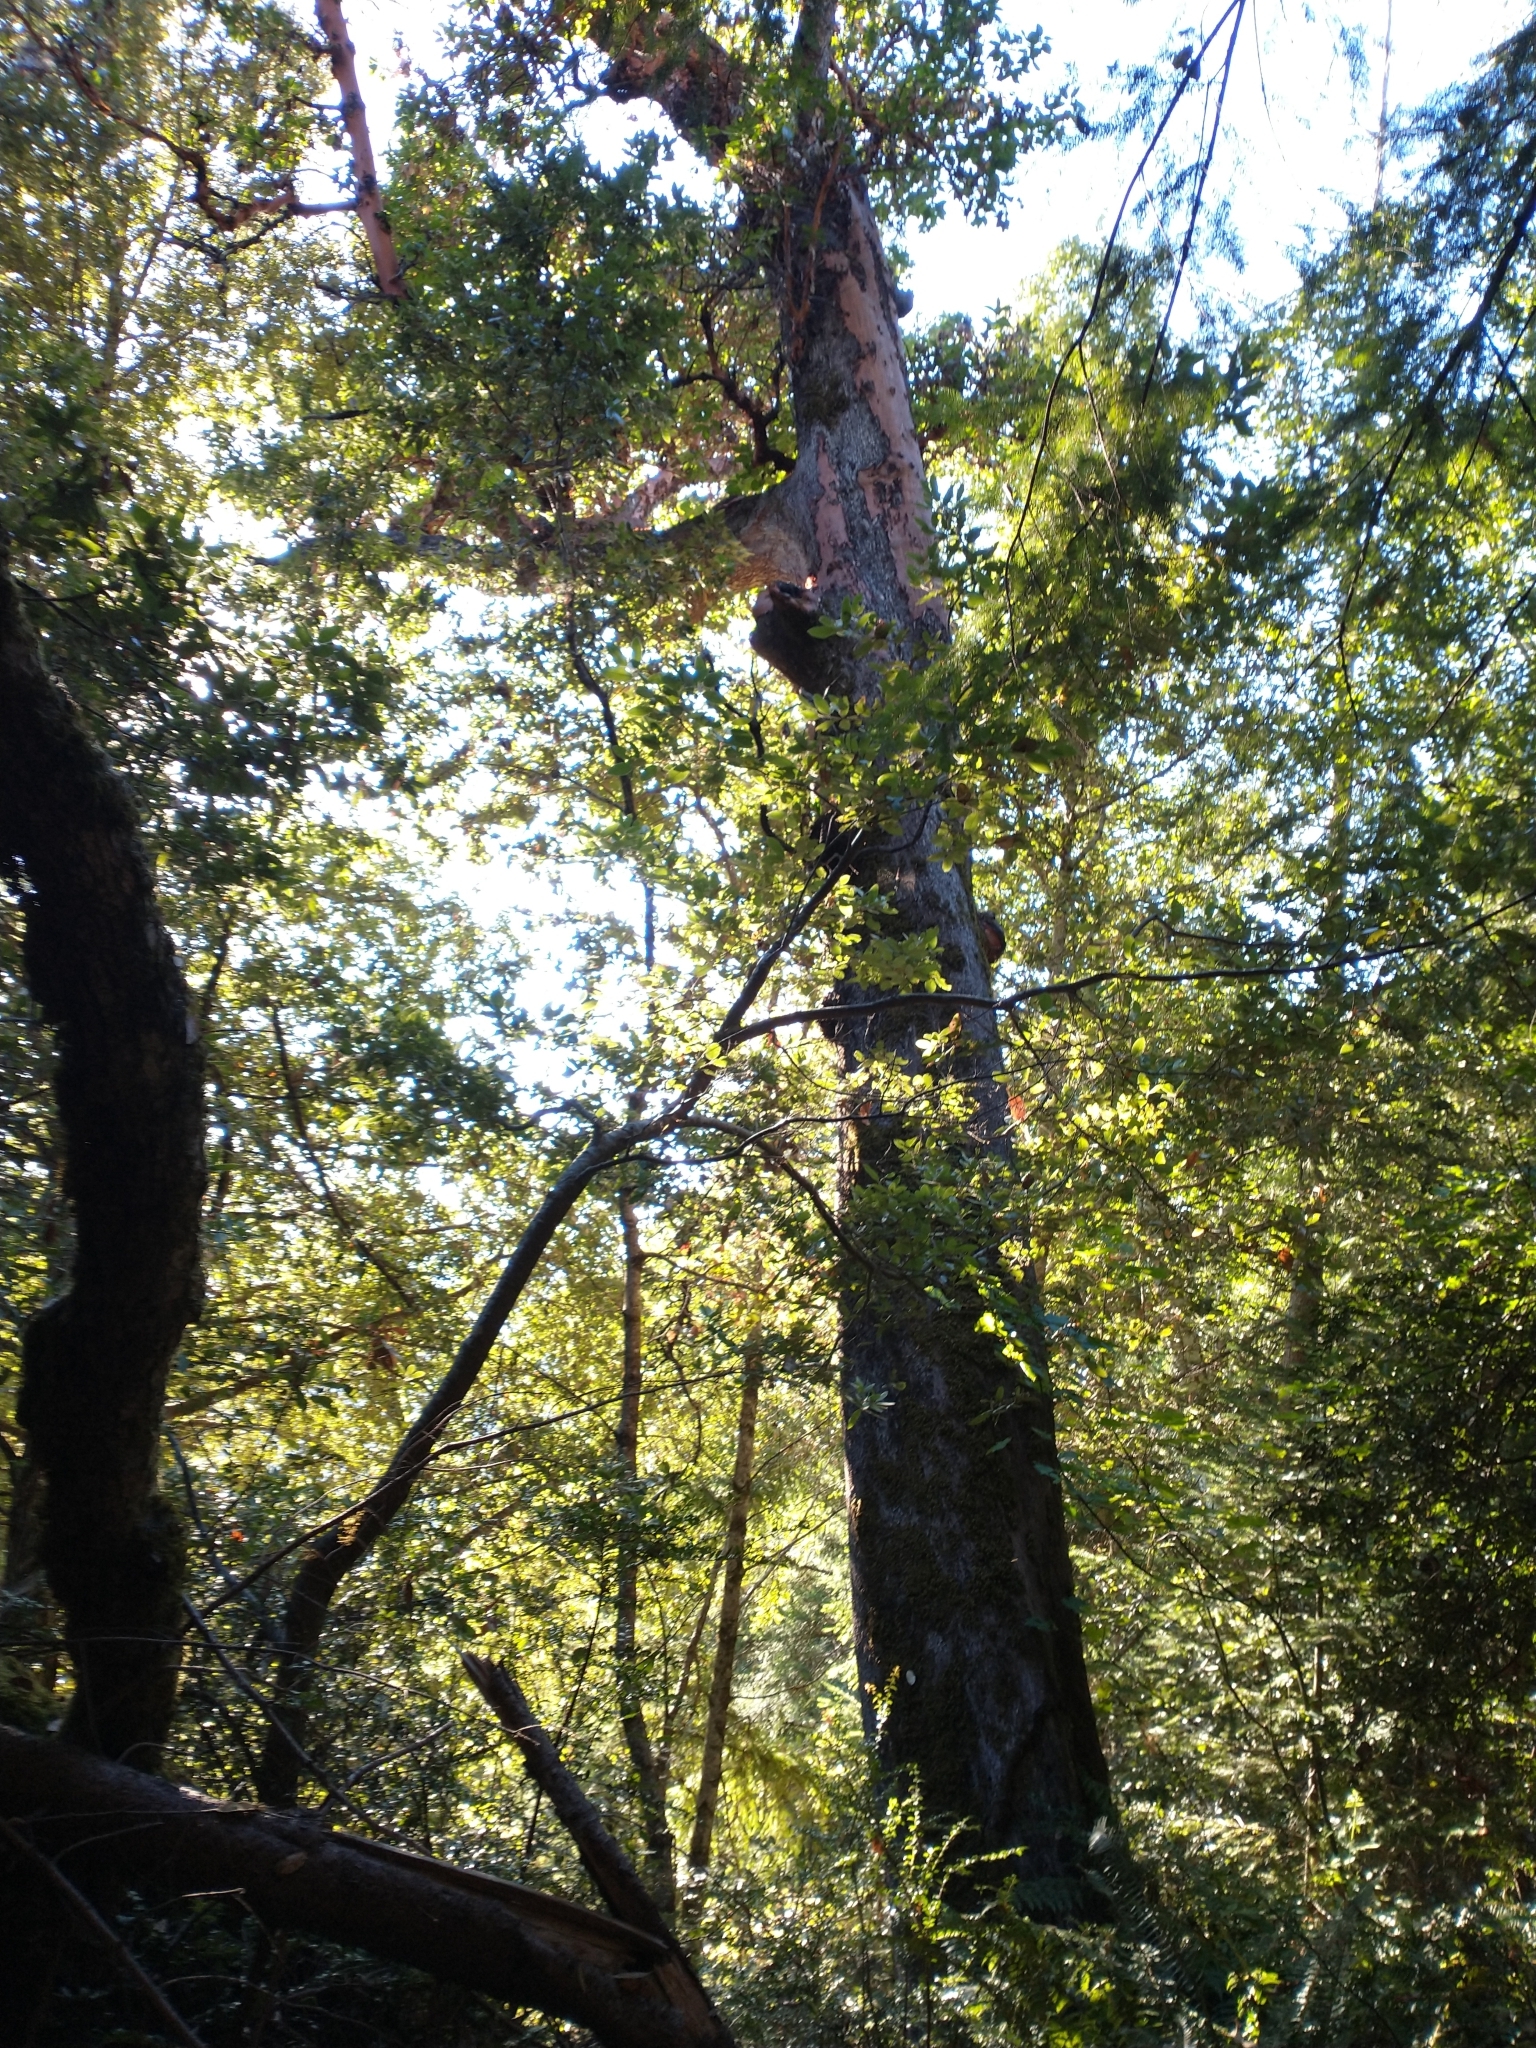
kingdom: Plantae
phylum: Tracheophyta
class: Magnoliopsida
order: Ericales
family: Ericaceae
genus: Arbutus
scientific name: Arbutus menziesii
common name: Pacific madrone
